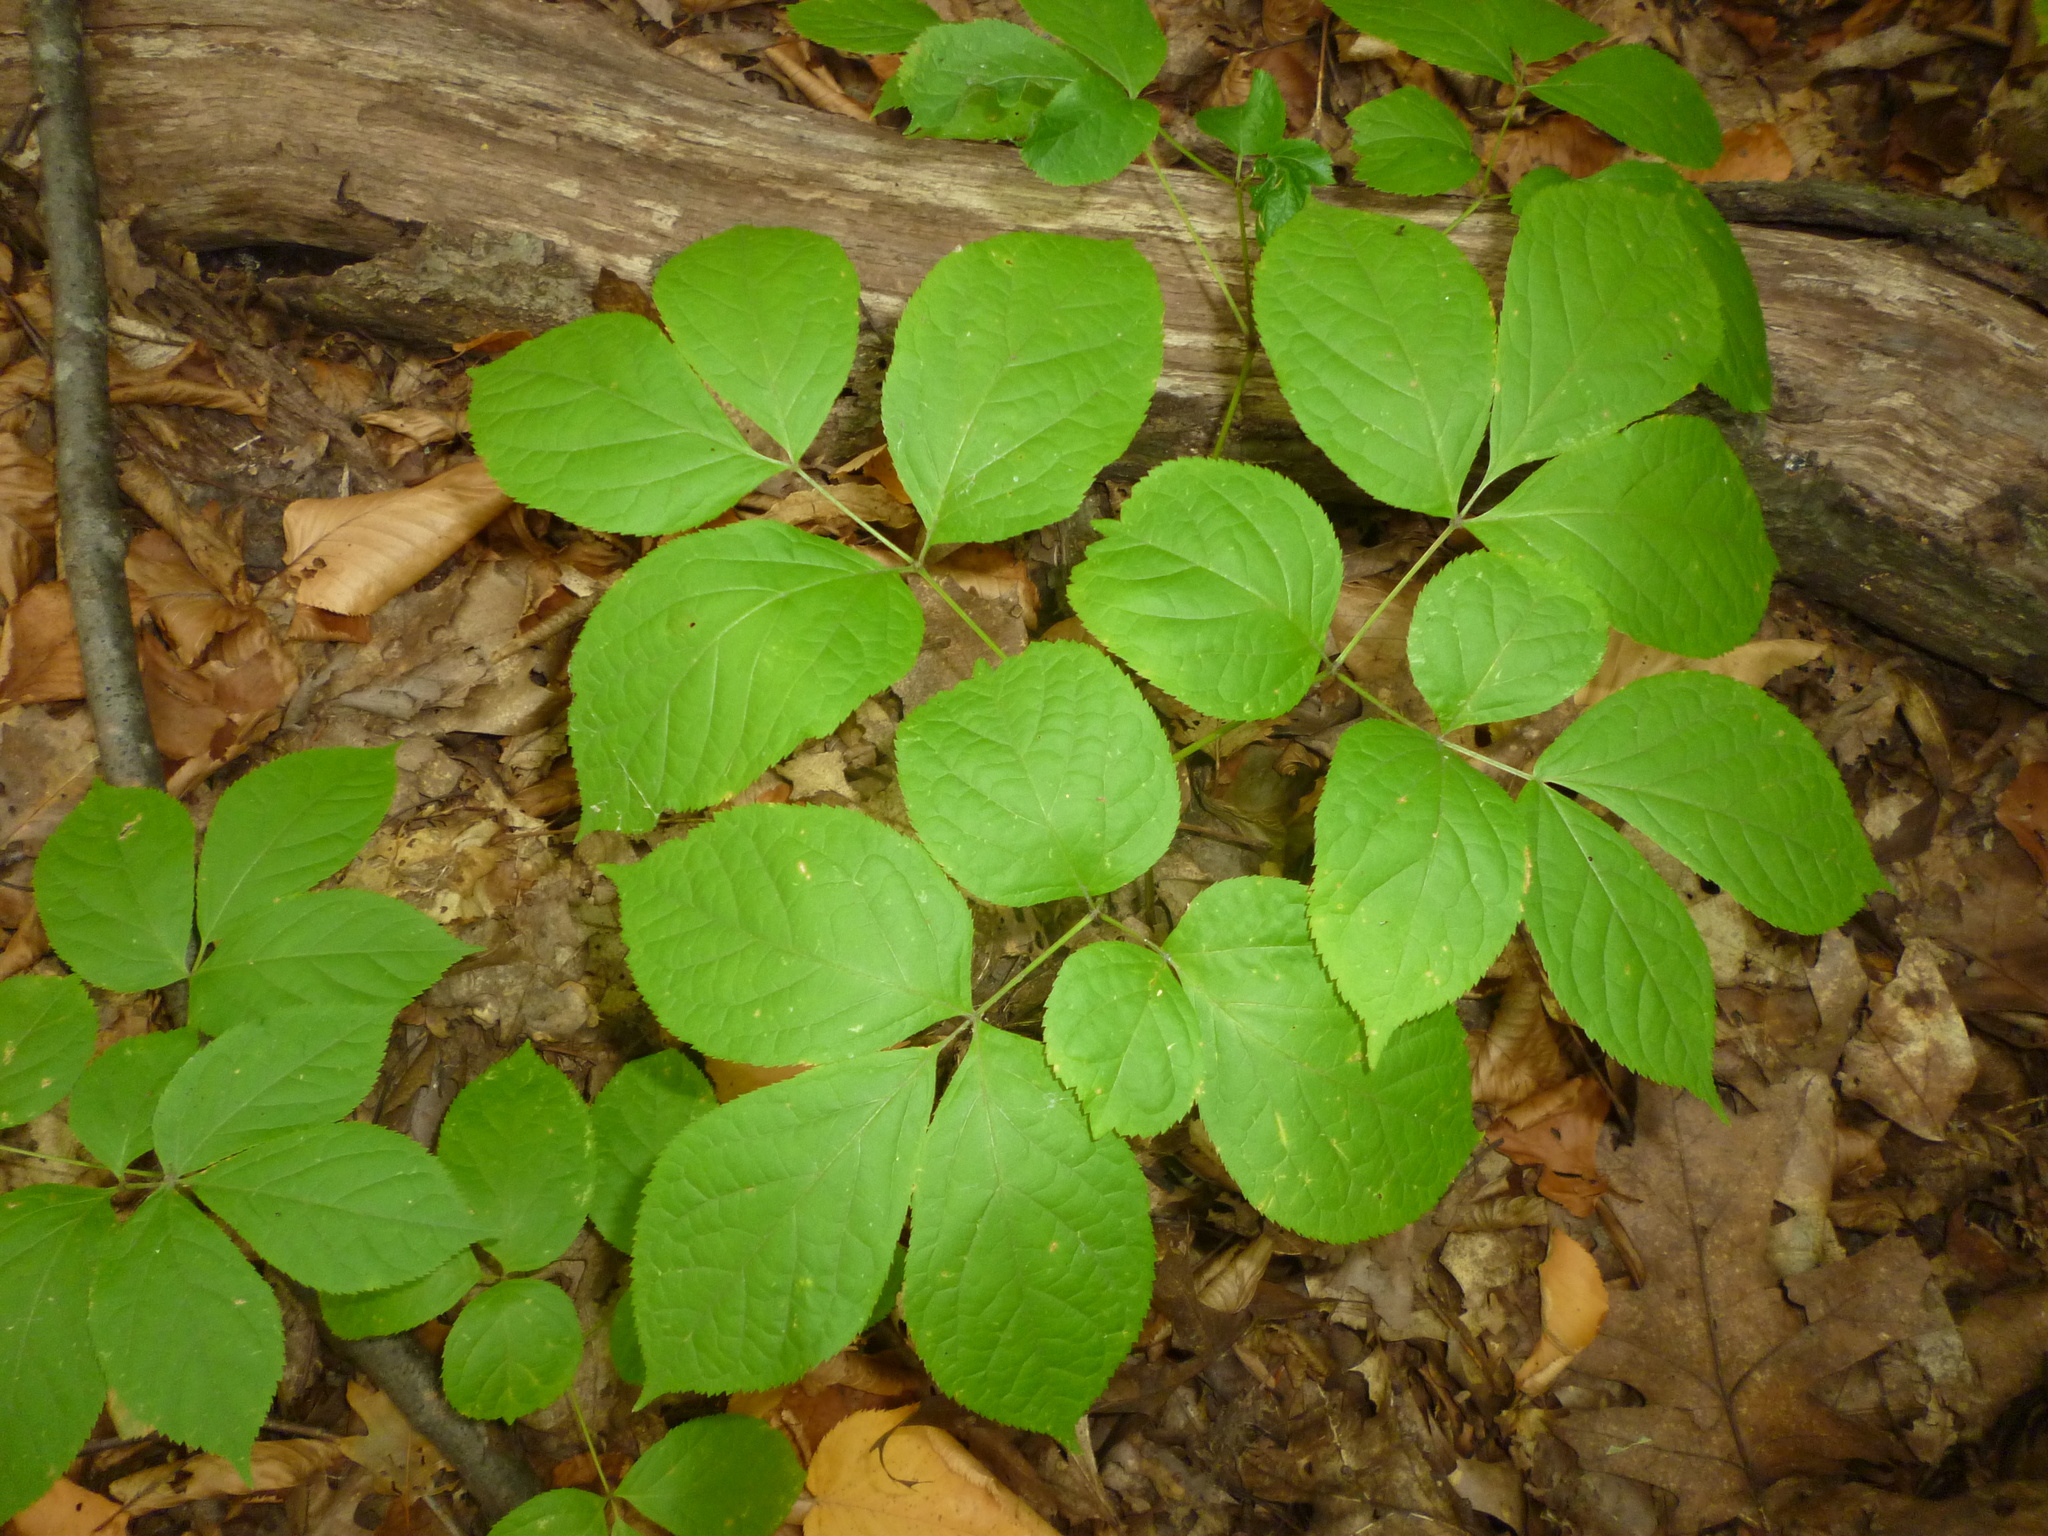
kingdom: Plantae
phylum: Tracheophyta
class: Magnoliopsida
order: Apiales
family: Araliaceae
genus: Aralia
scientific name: Aralia nudicaulis
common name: Wild sarsaparilla
